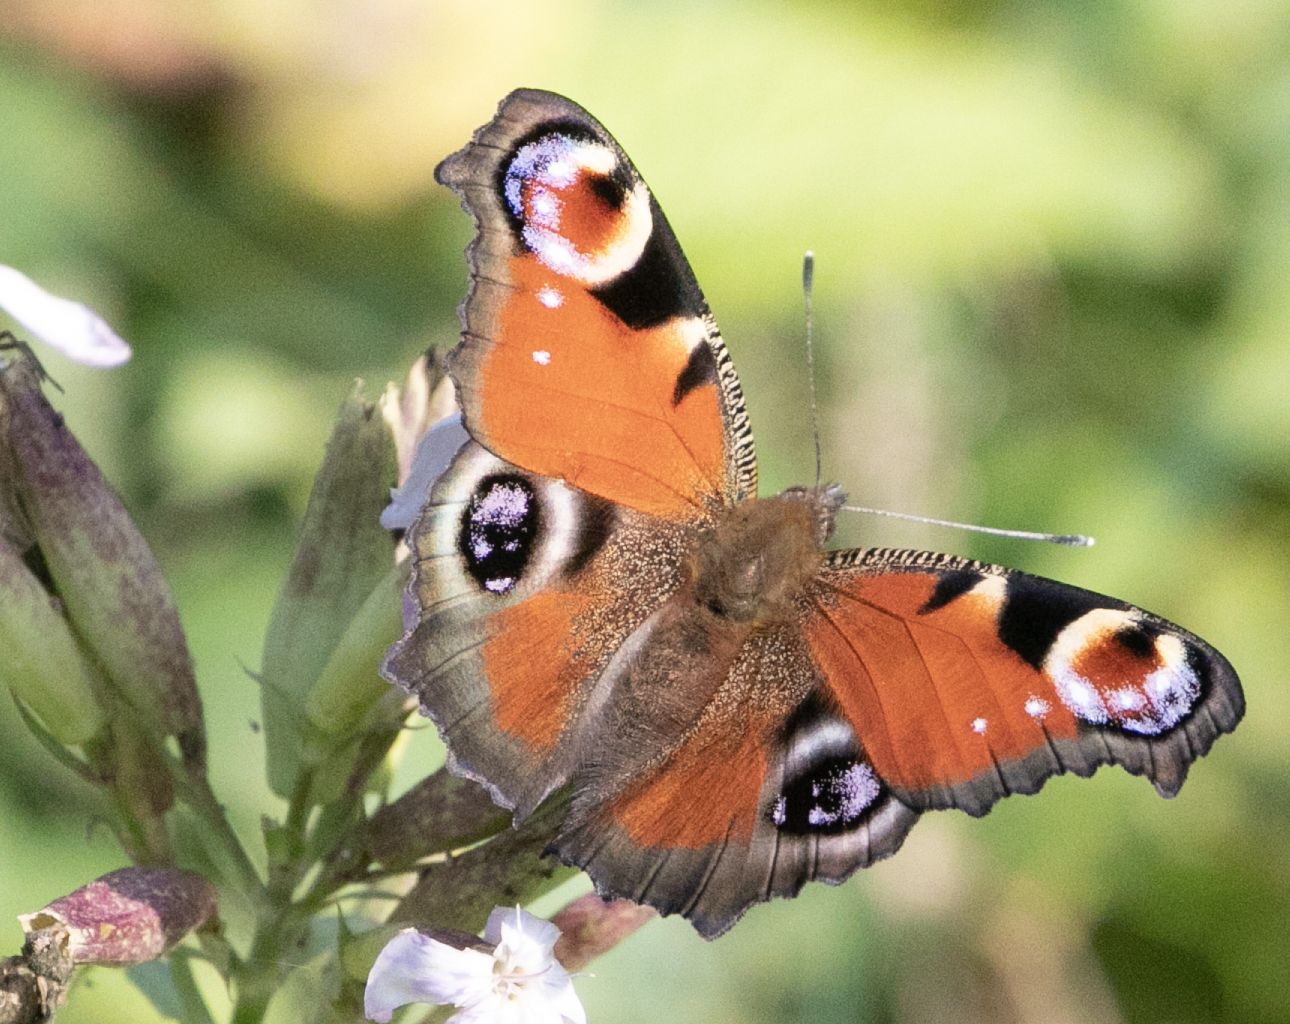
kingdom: Animalia
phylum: Arthropoda
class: Insecta
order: Lepidoptera
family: Nymphalidae
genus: Aglais
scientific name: Aglais io
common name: Peacock
